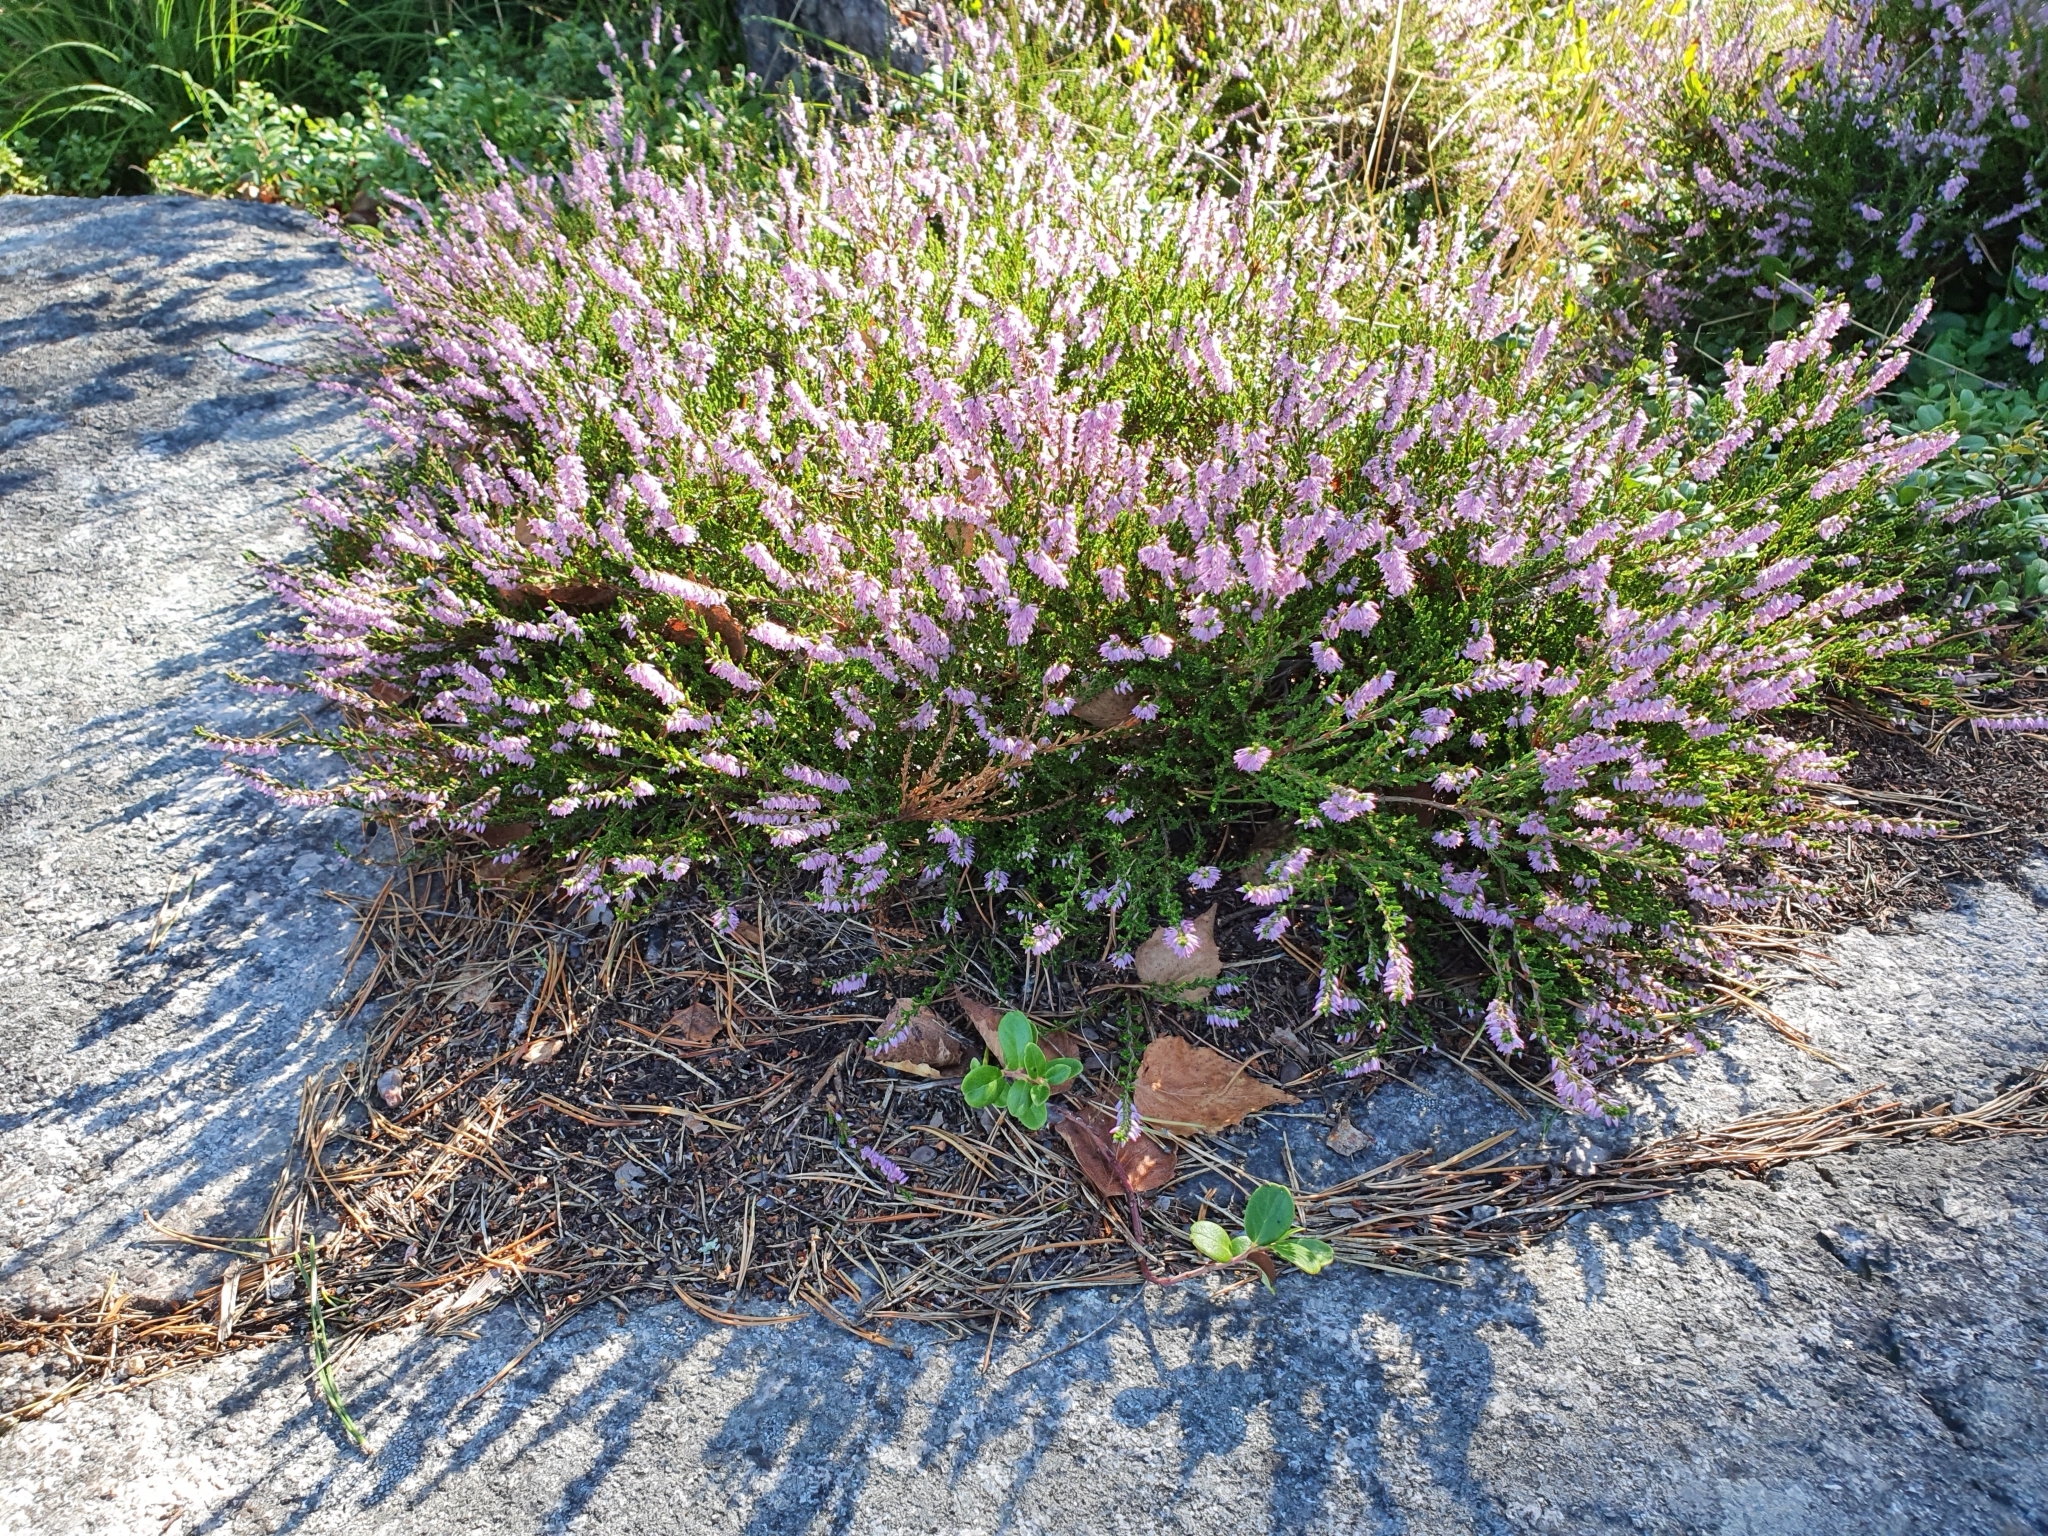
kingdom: Plantae
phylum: Tracheophyta
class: Magnoliopsida
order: Ericales
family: Ericaceae
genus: Calluna
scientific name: Calluna vulgaris
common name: Heather
